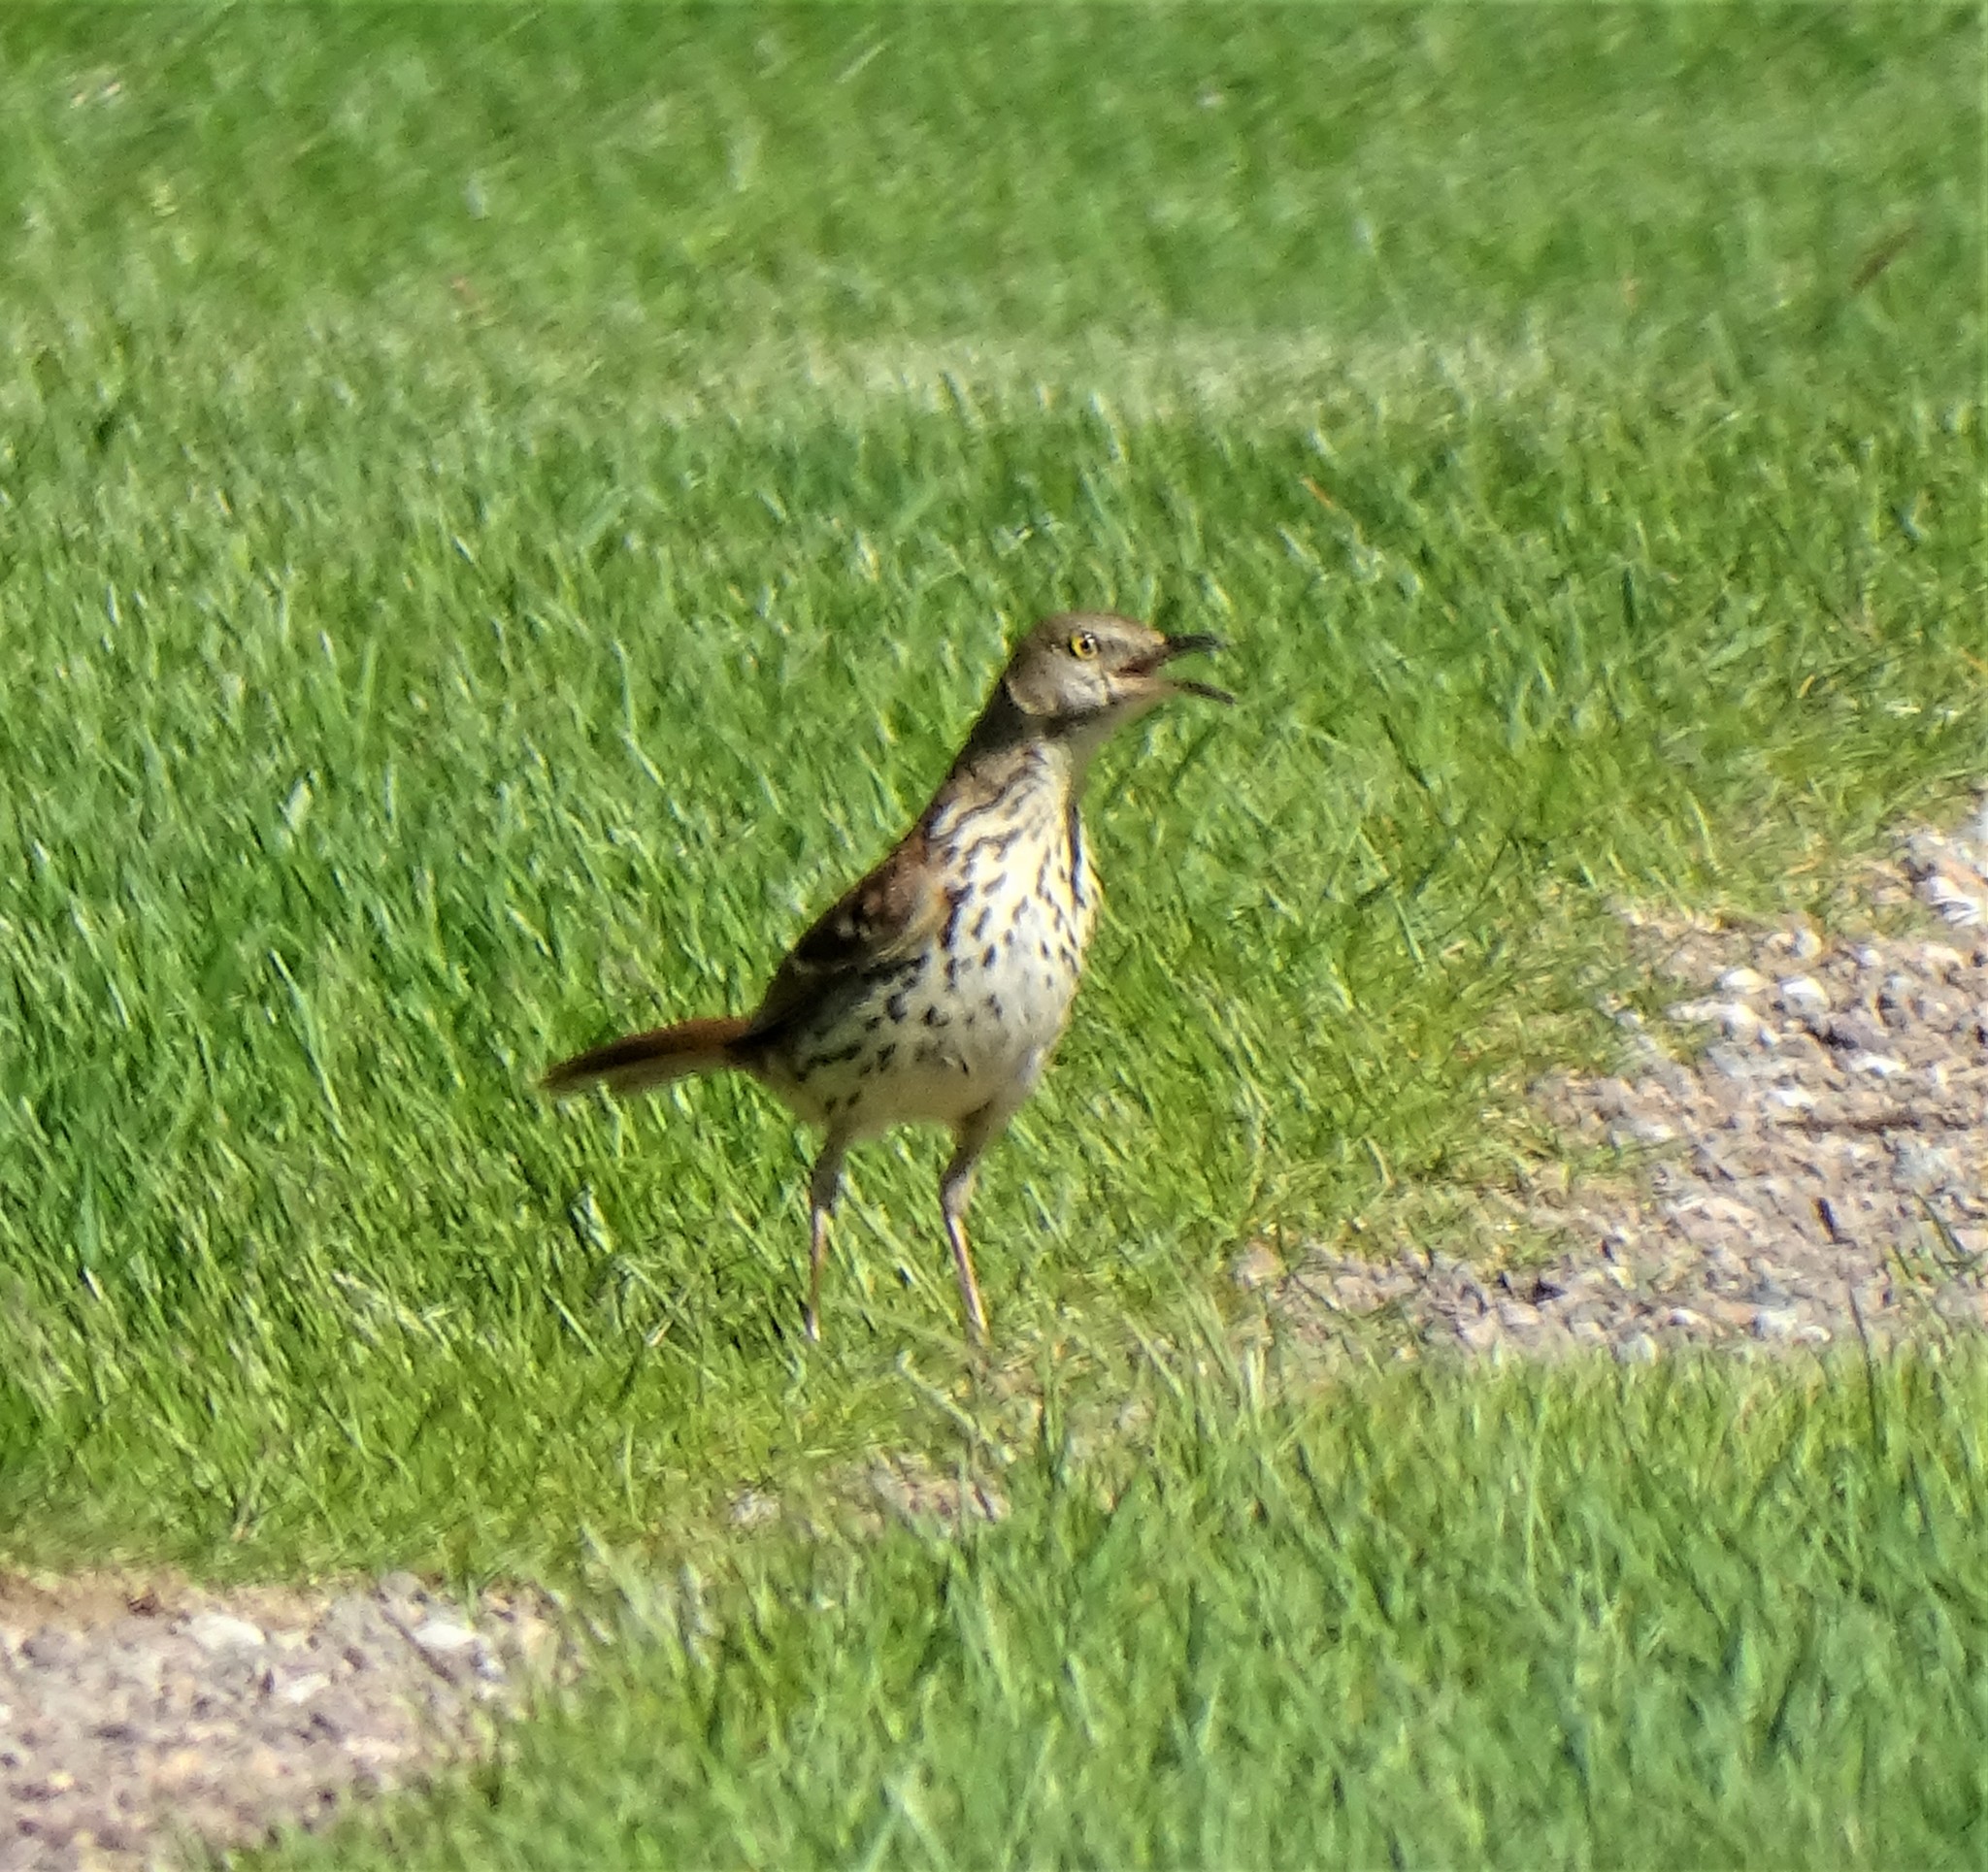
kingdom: Animalia
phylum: Chordata
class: Aves
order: Passeriformes
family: Mimidae
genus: Toxostoma
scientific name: Toxostoma rufum
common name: Brown thrasher
